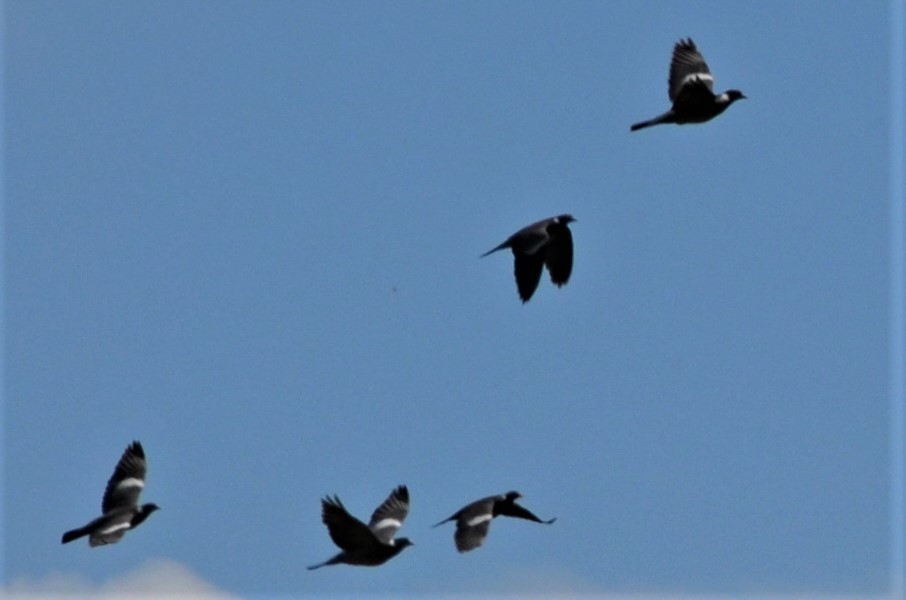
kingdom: Animalia
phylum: Chordata
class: Aves
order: Columbiformes
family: Columbidae
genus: Columba
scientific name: Columba palumbus
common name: Common wood pigeon
